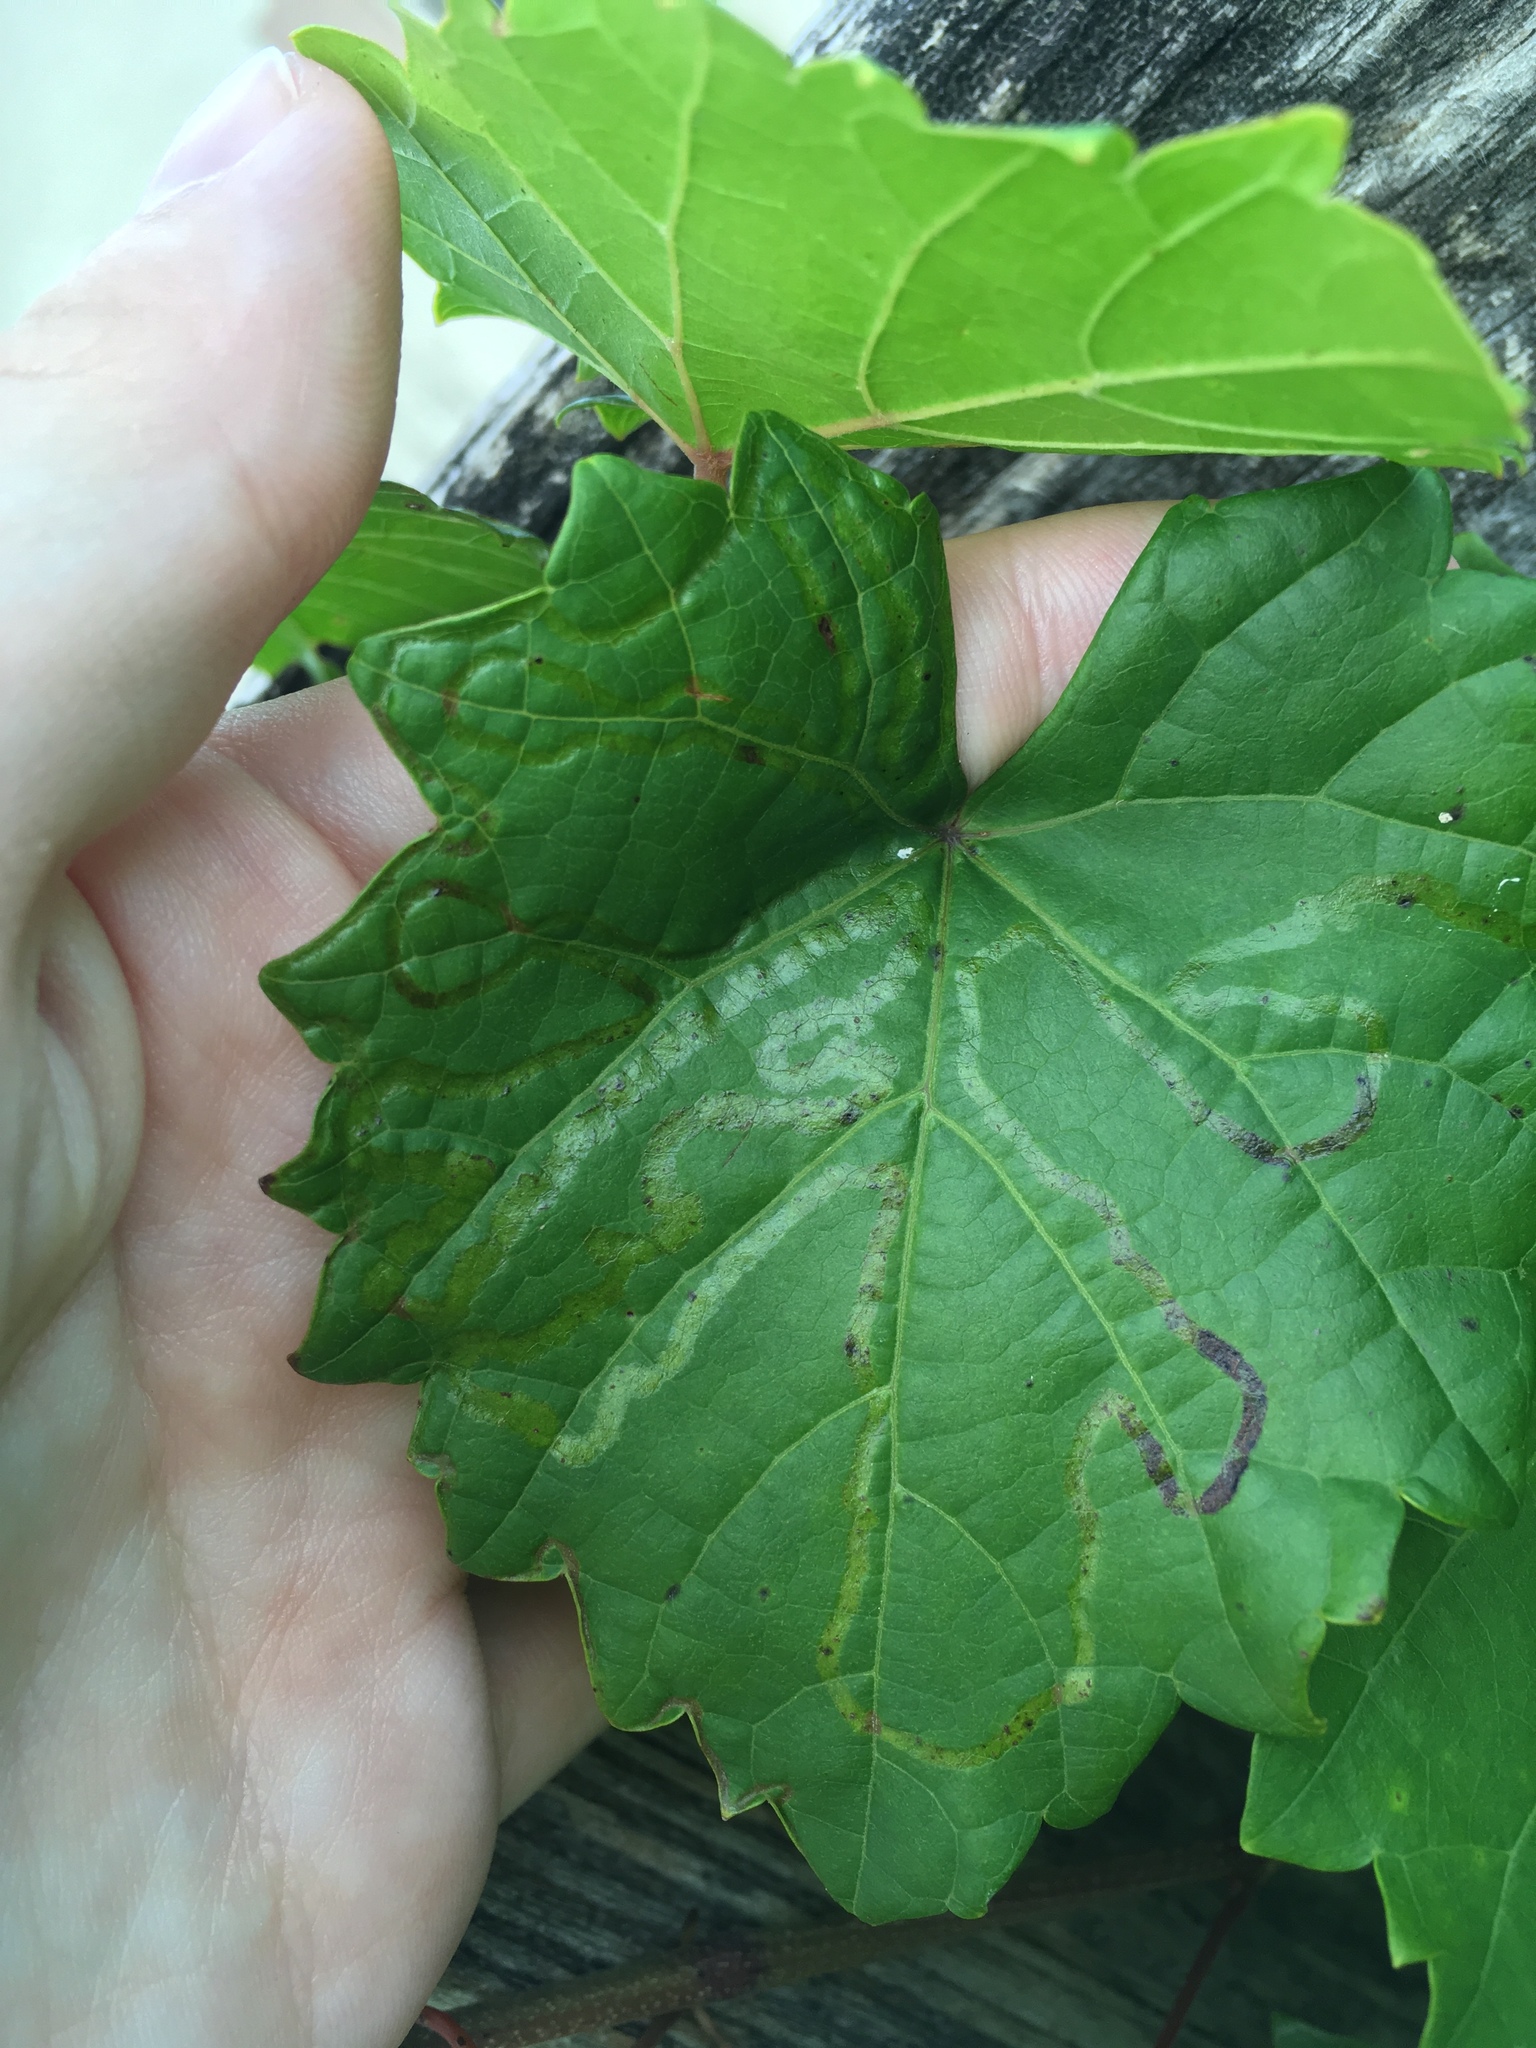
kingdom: Animalia
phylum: Arthropoda
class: Insecta
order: Lepidoptera
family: Gracillariidae
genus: Phyllocnistis
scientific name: Phyllocnistis vitegenella
